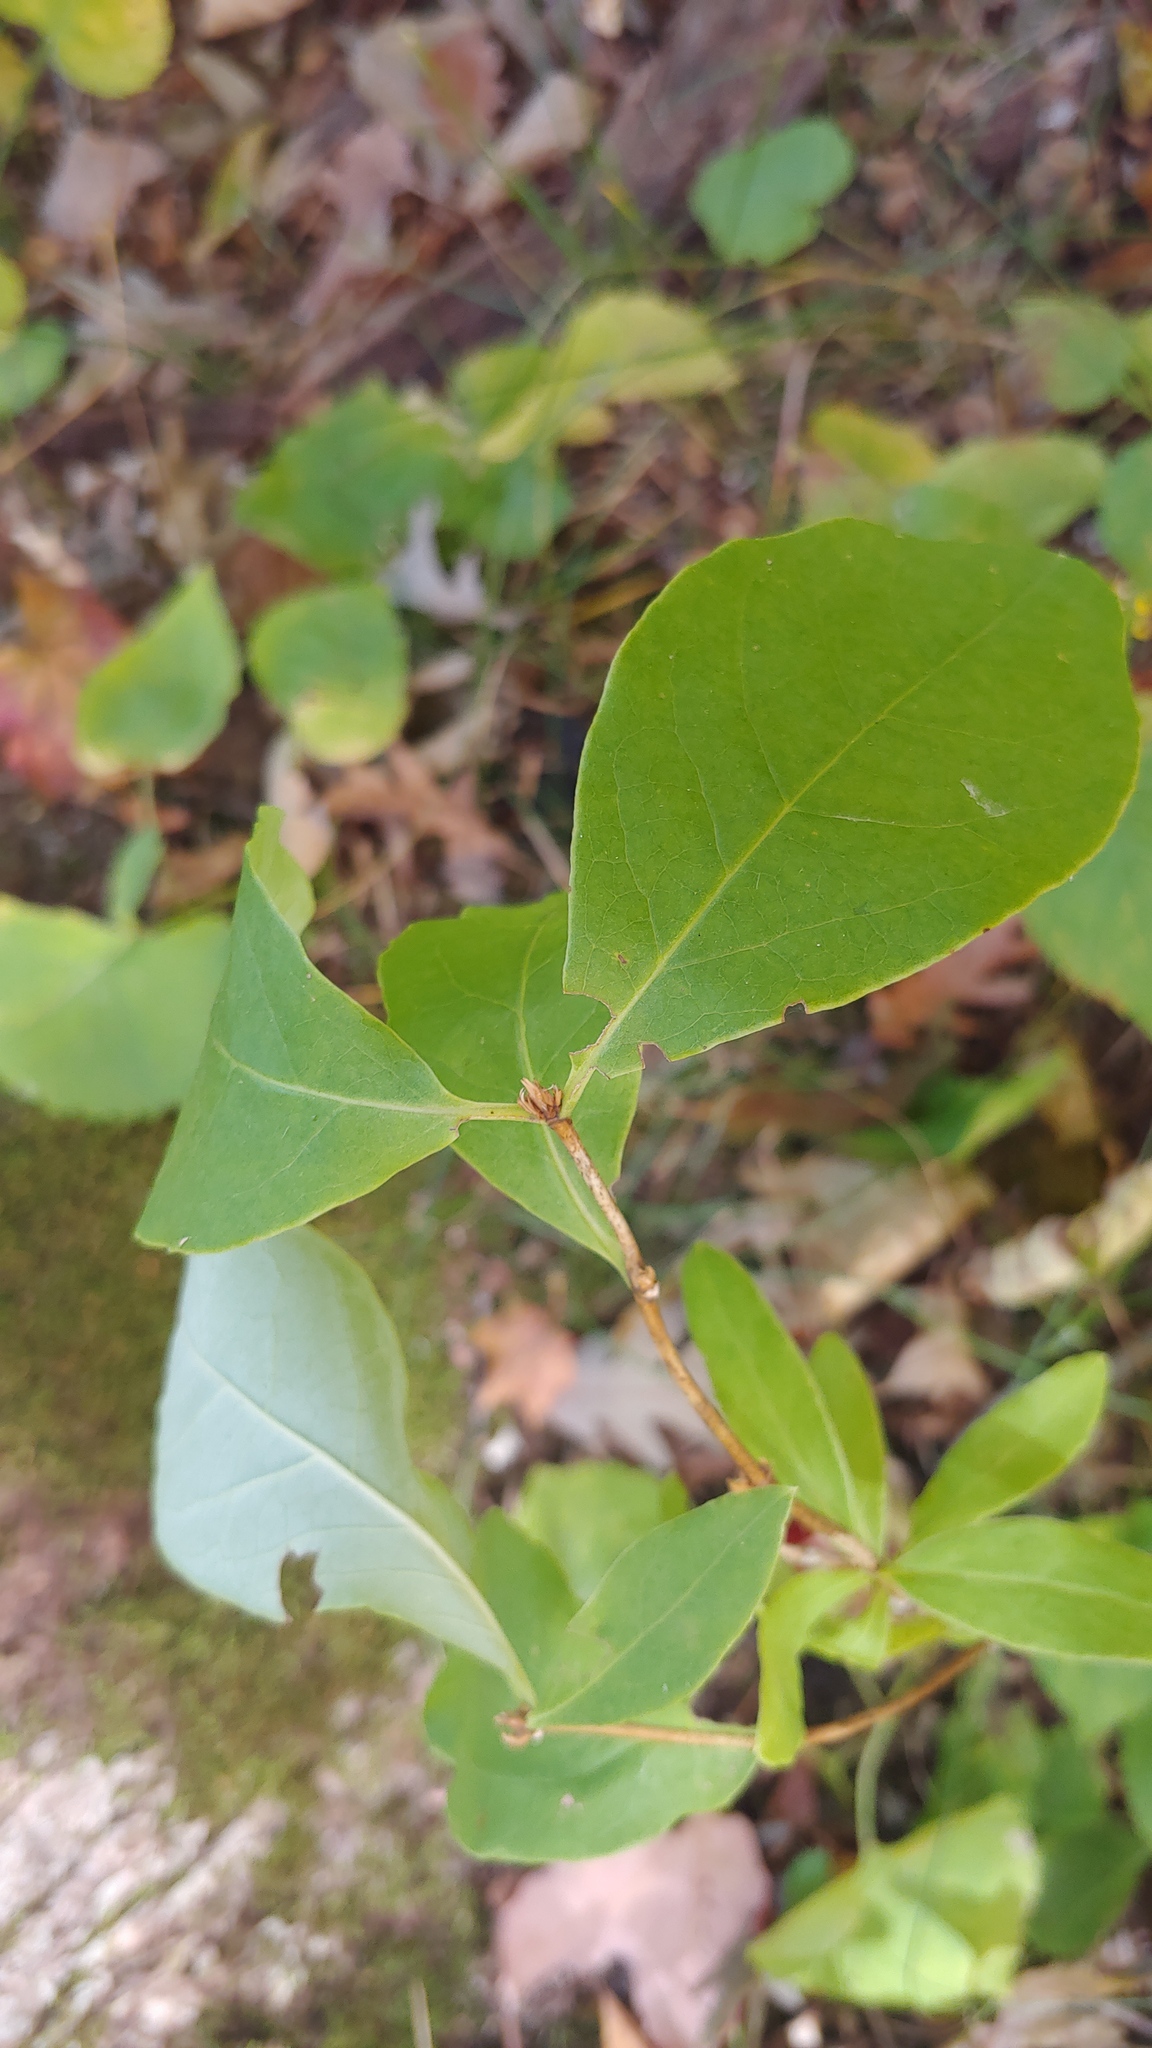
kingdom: Plantae
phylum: Tracheophyta
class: Magnoliopsida
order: Dipsacales
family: Caprifoliaceae
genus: Lonicera
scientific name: Lonicera reticulata
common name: Grape honeysuckle
